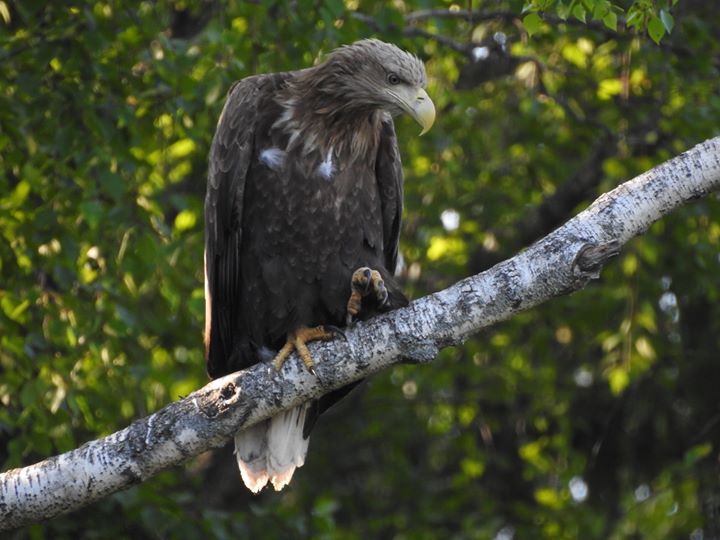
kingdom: Animalia
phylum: Chordata
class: Aves
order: Accipitriformes
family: Accipitridae
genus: Haliaeetus
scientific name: Haliaeetus albicilla
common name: White-tailed eagle
